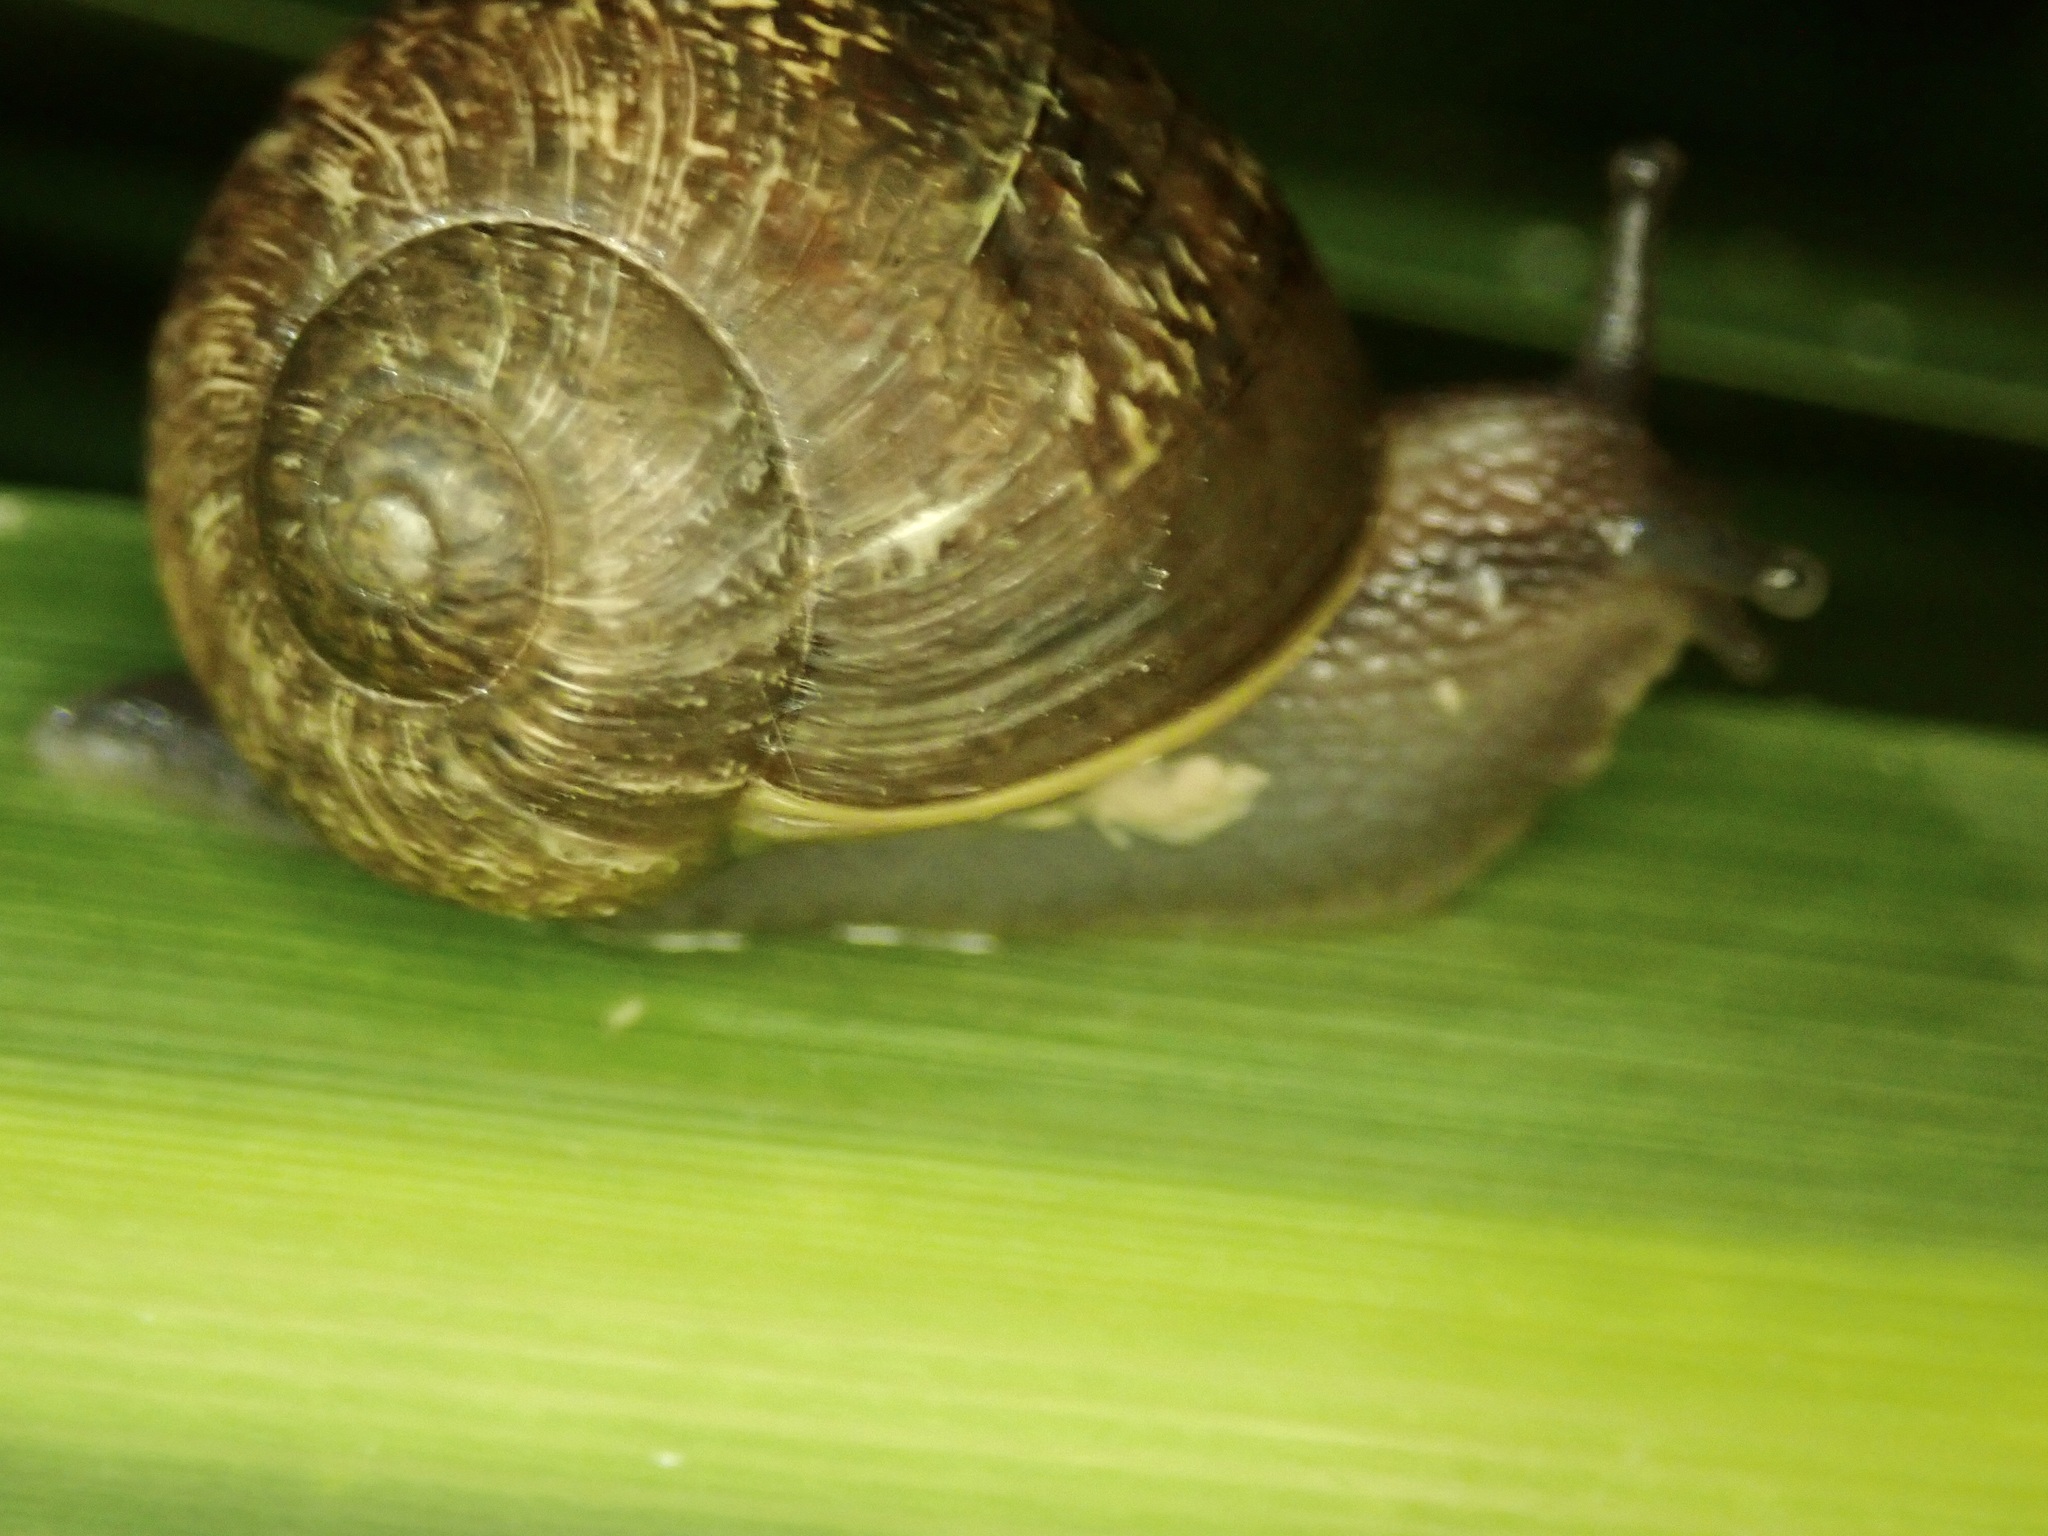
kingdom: Animalia
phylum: Mollusca
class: Gastropoda
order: Stylommatophora
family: Helicidae
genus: Cornu
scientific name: Cornu aspersum
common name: Brown garden snail
